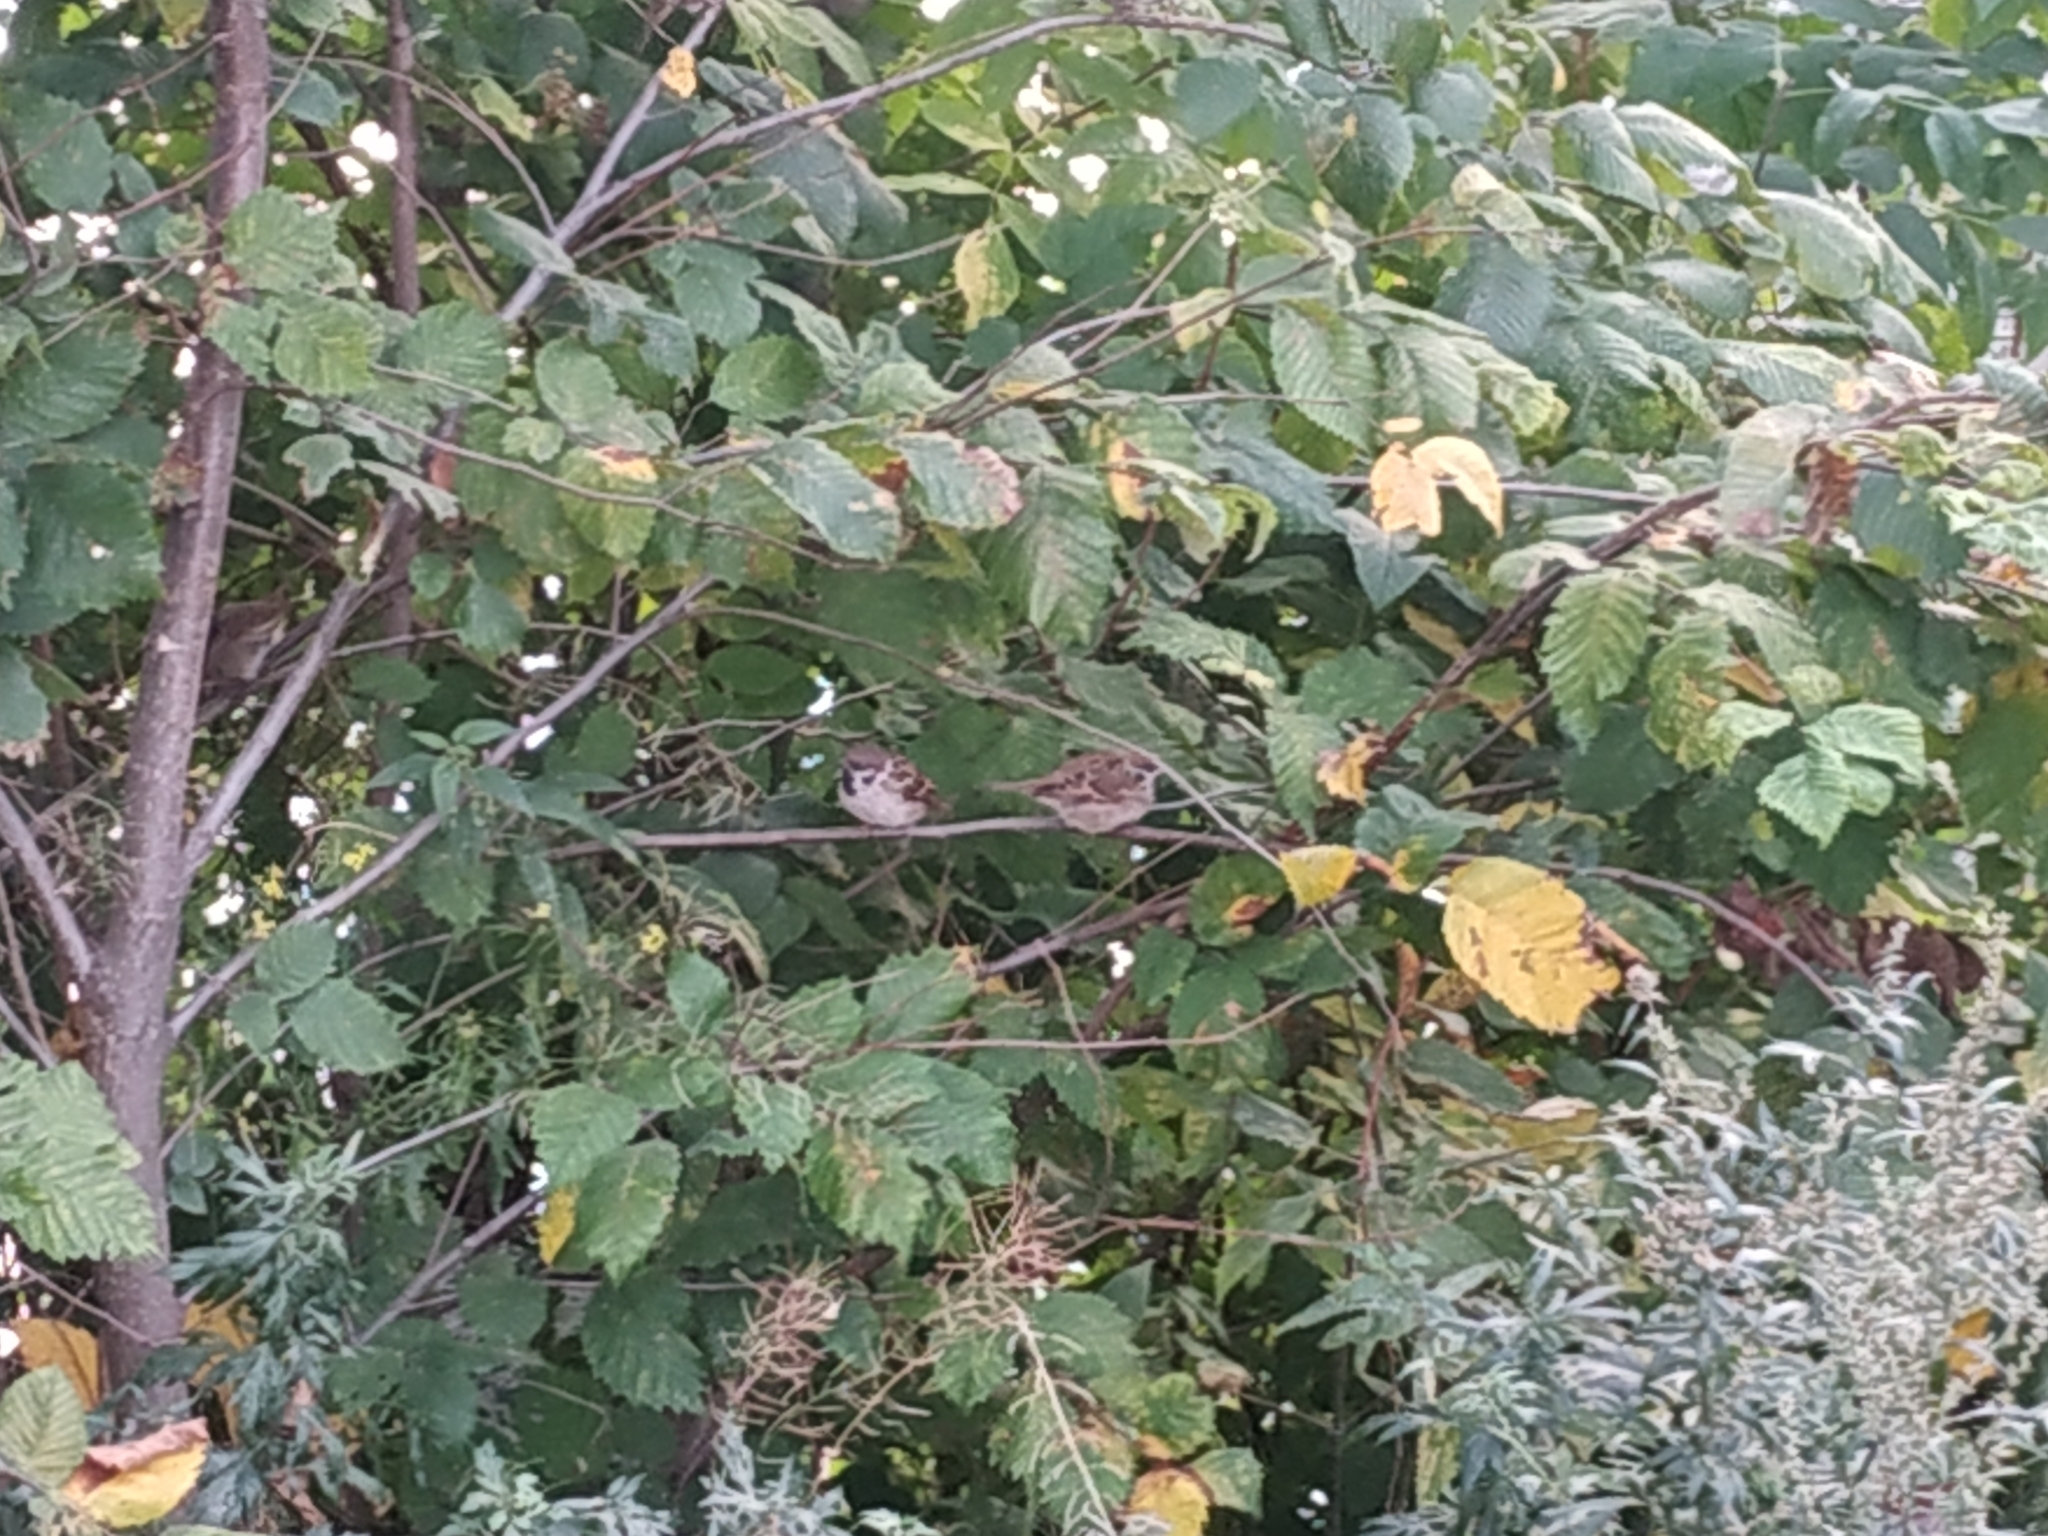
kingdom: Animalia
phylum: Chordata
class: Aves
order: Passeriformes
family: Passeridae
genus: Passer
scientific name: Passer montanus
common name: Eurasian tree sparrow
